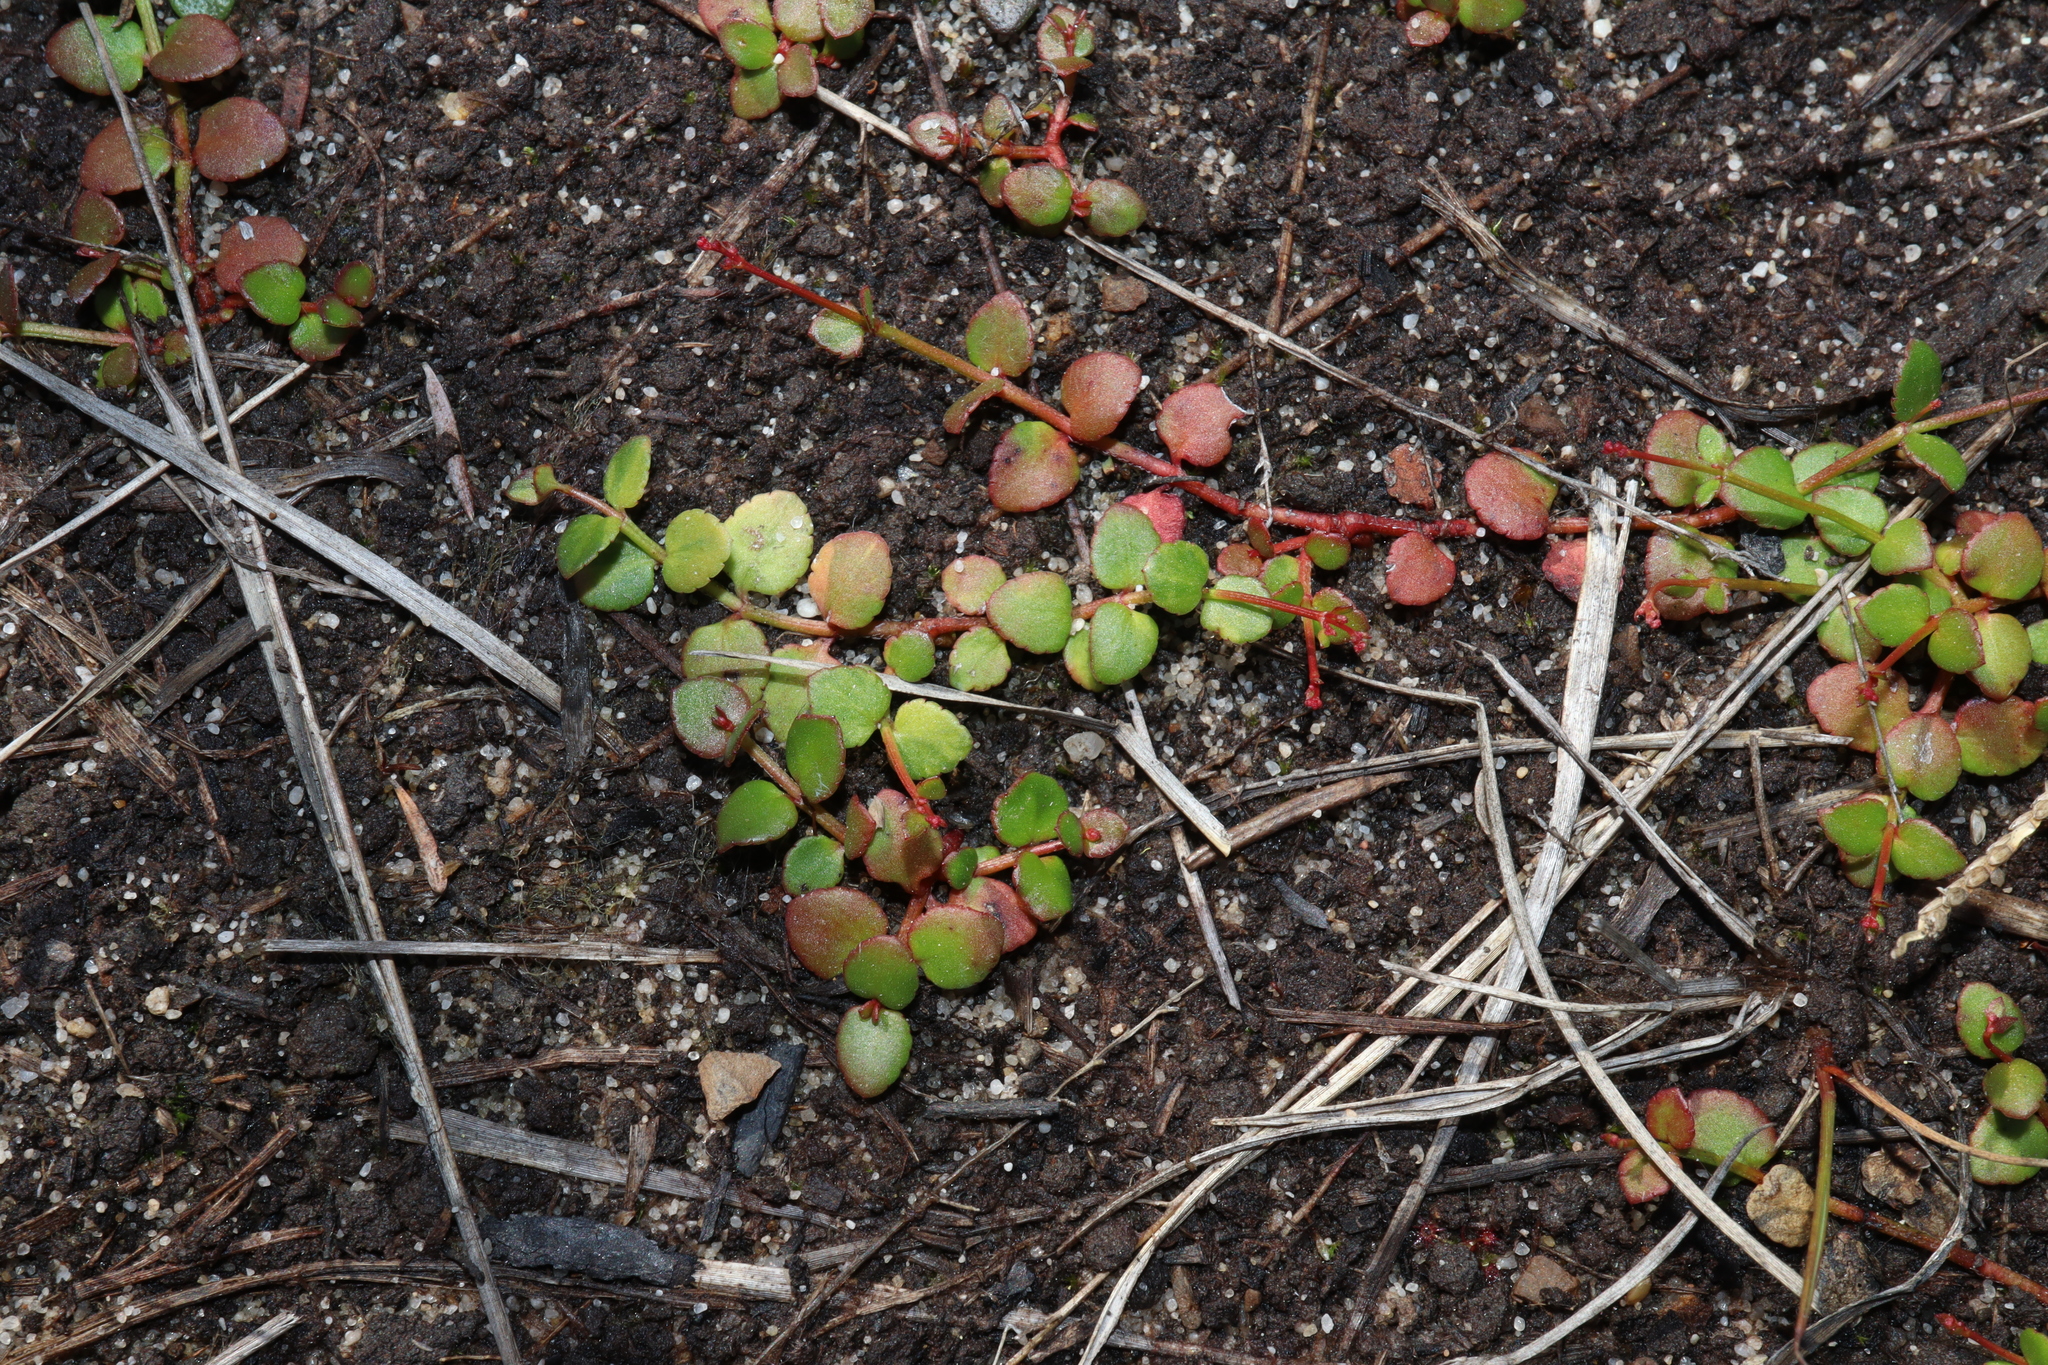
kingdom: Plantae
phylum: Tracheophyta
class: Magnoliopsida
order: Saxifragales
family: Haloragaceae
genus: Gonocarpus
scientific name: Gonocarpus micranthus
